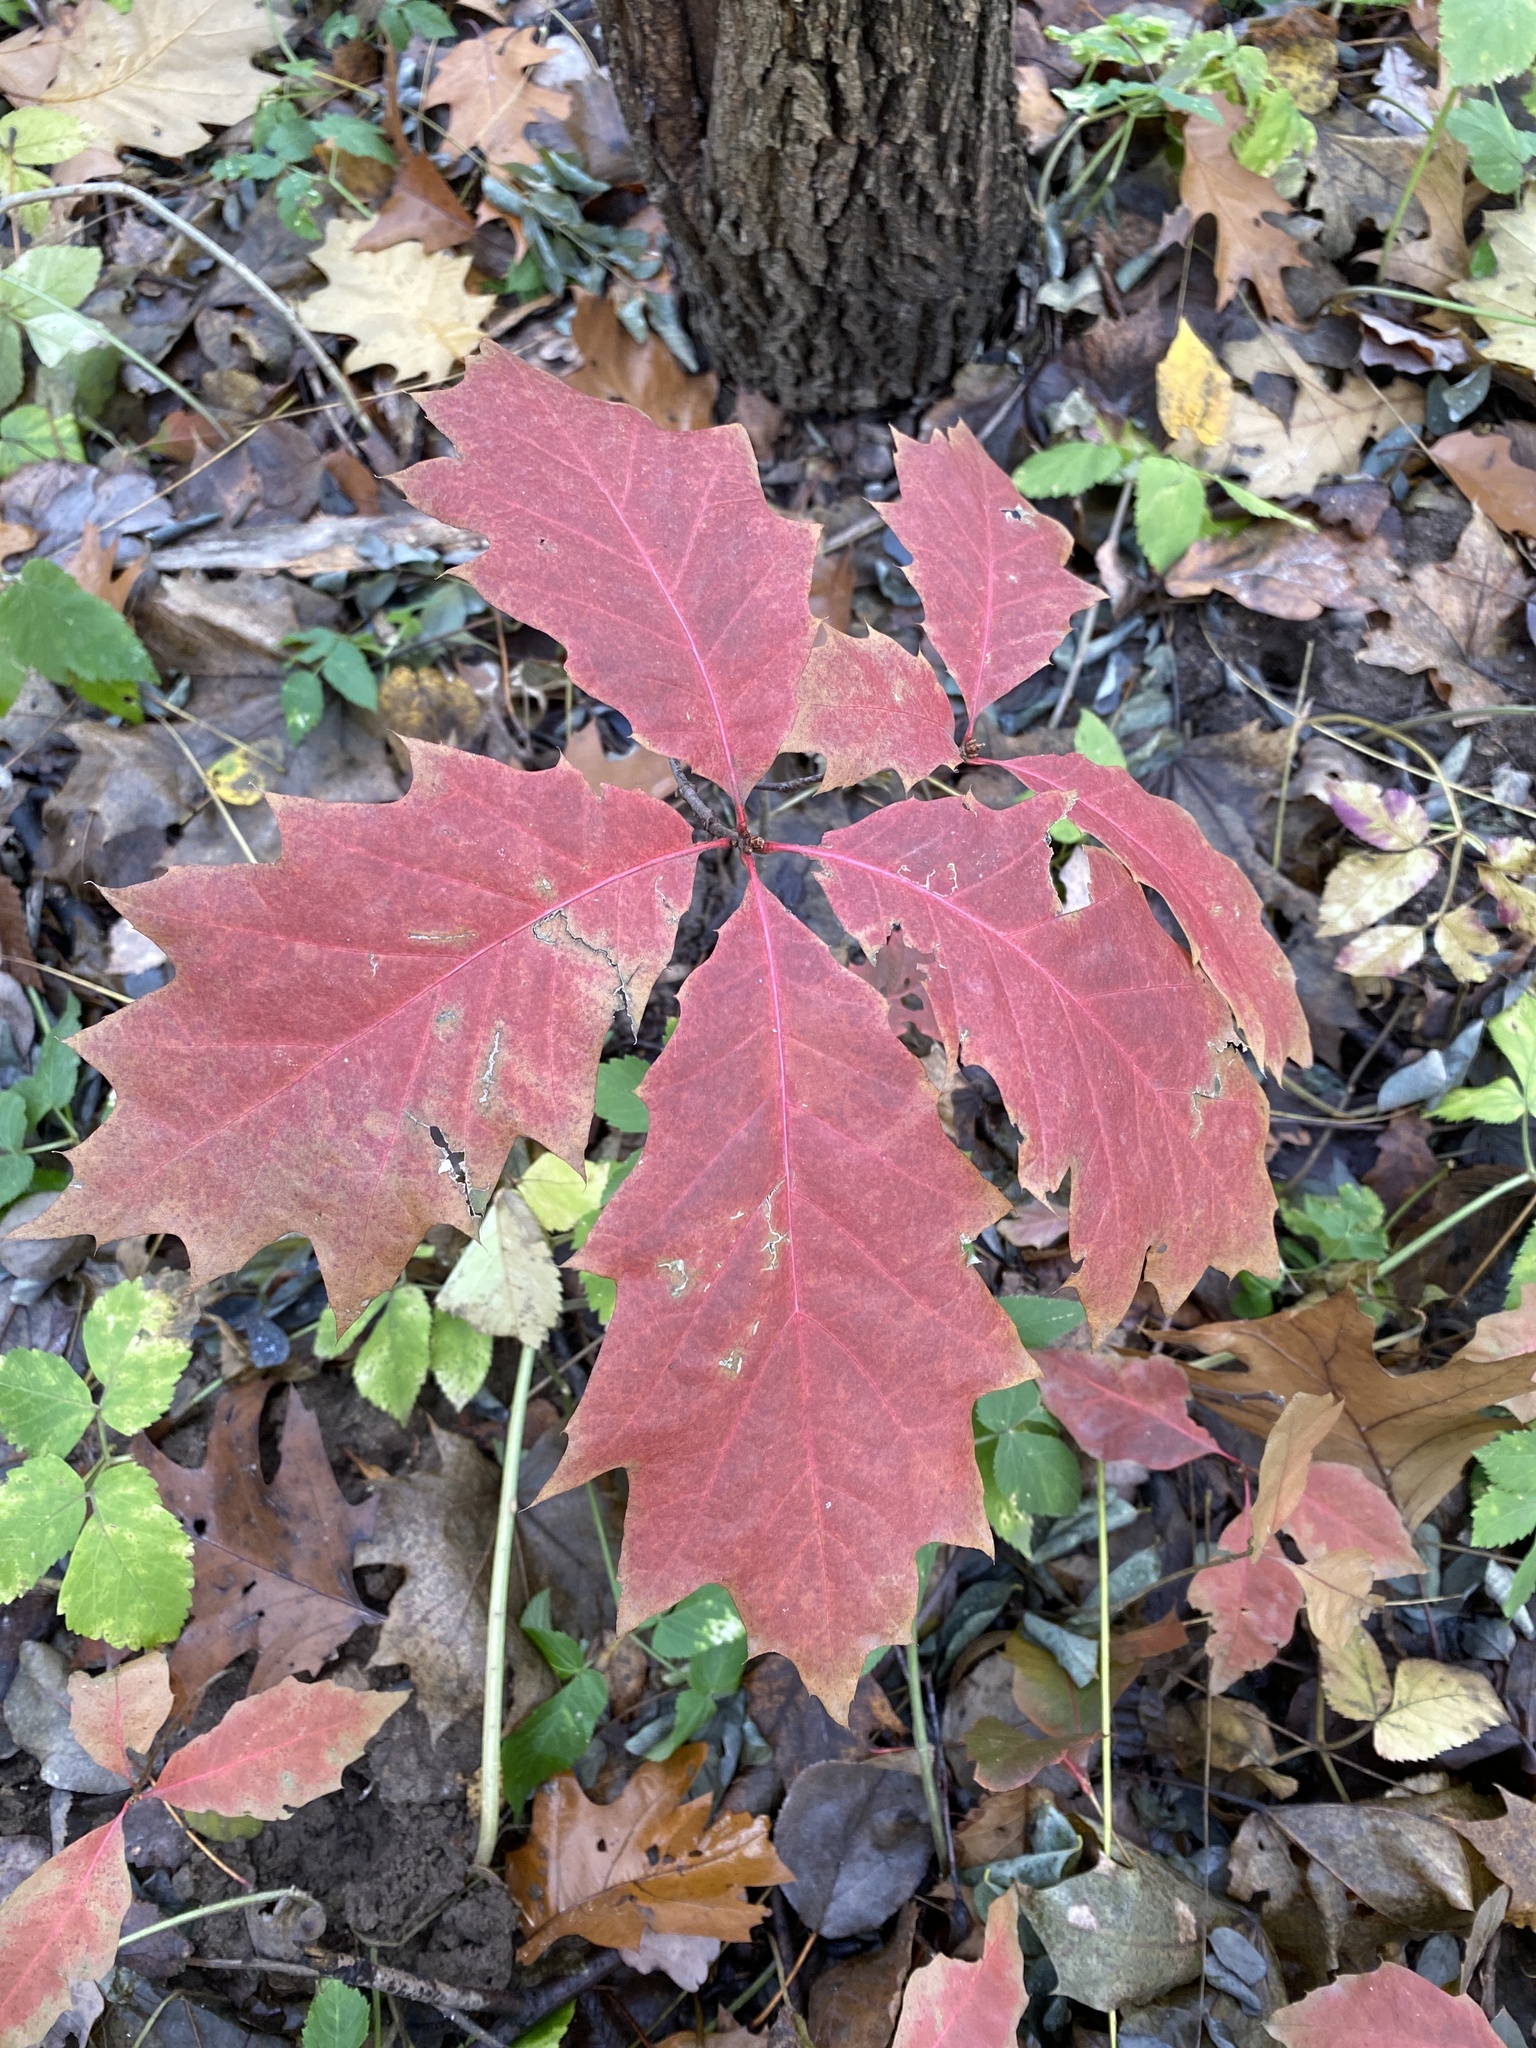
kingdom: Plantae
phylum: Tracheophyta
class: Magnoliopsida
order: Fagales
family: Fagaceae
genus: Quercus
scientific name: Quercus rubra
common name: Red oak
